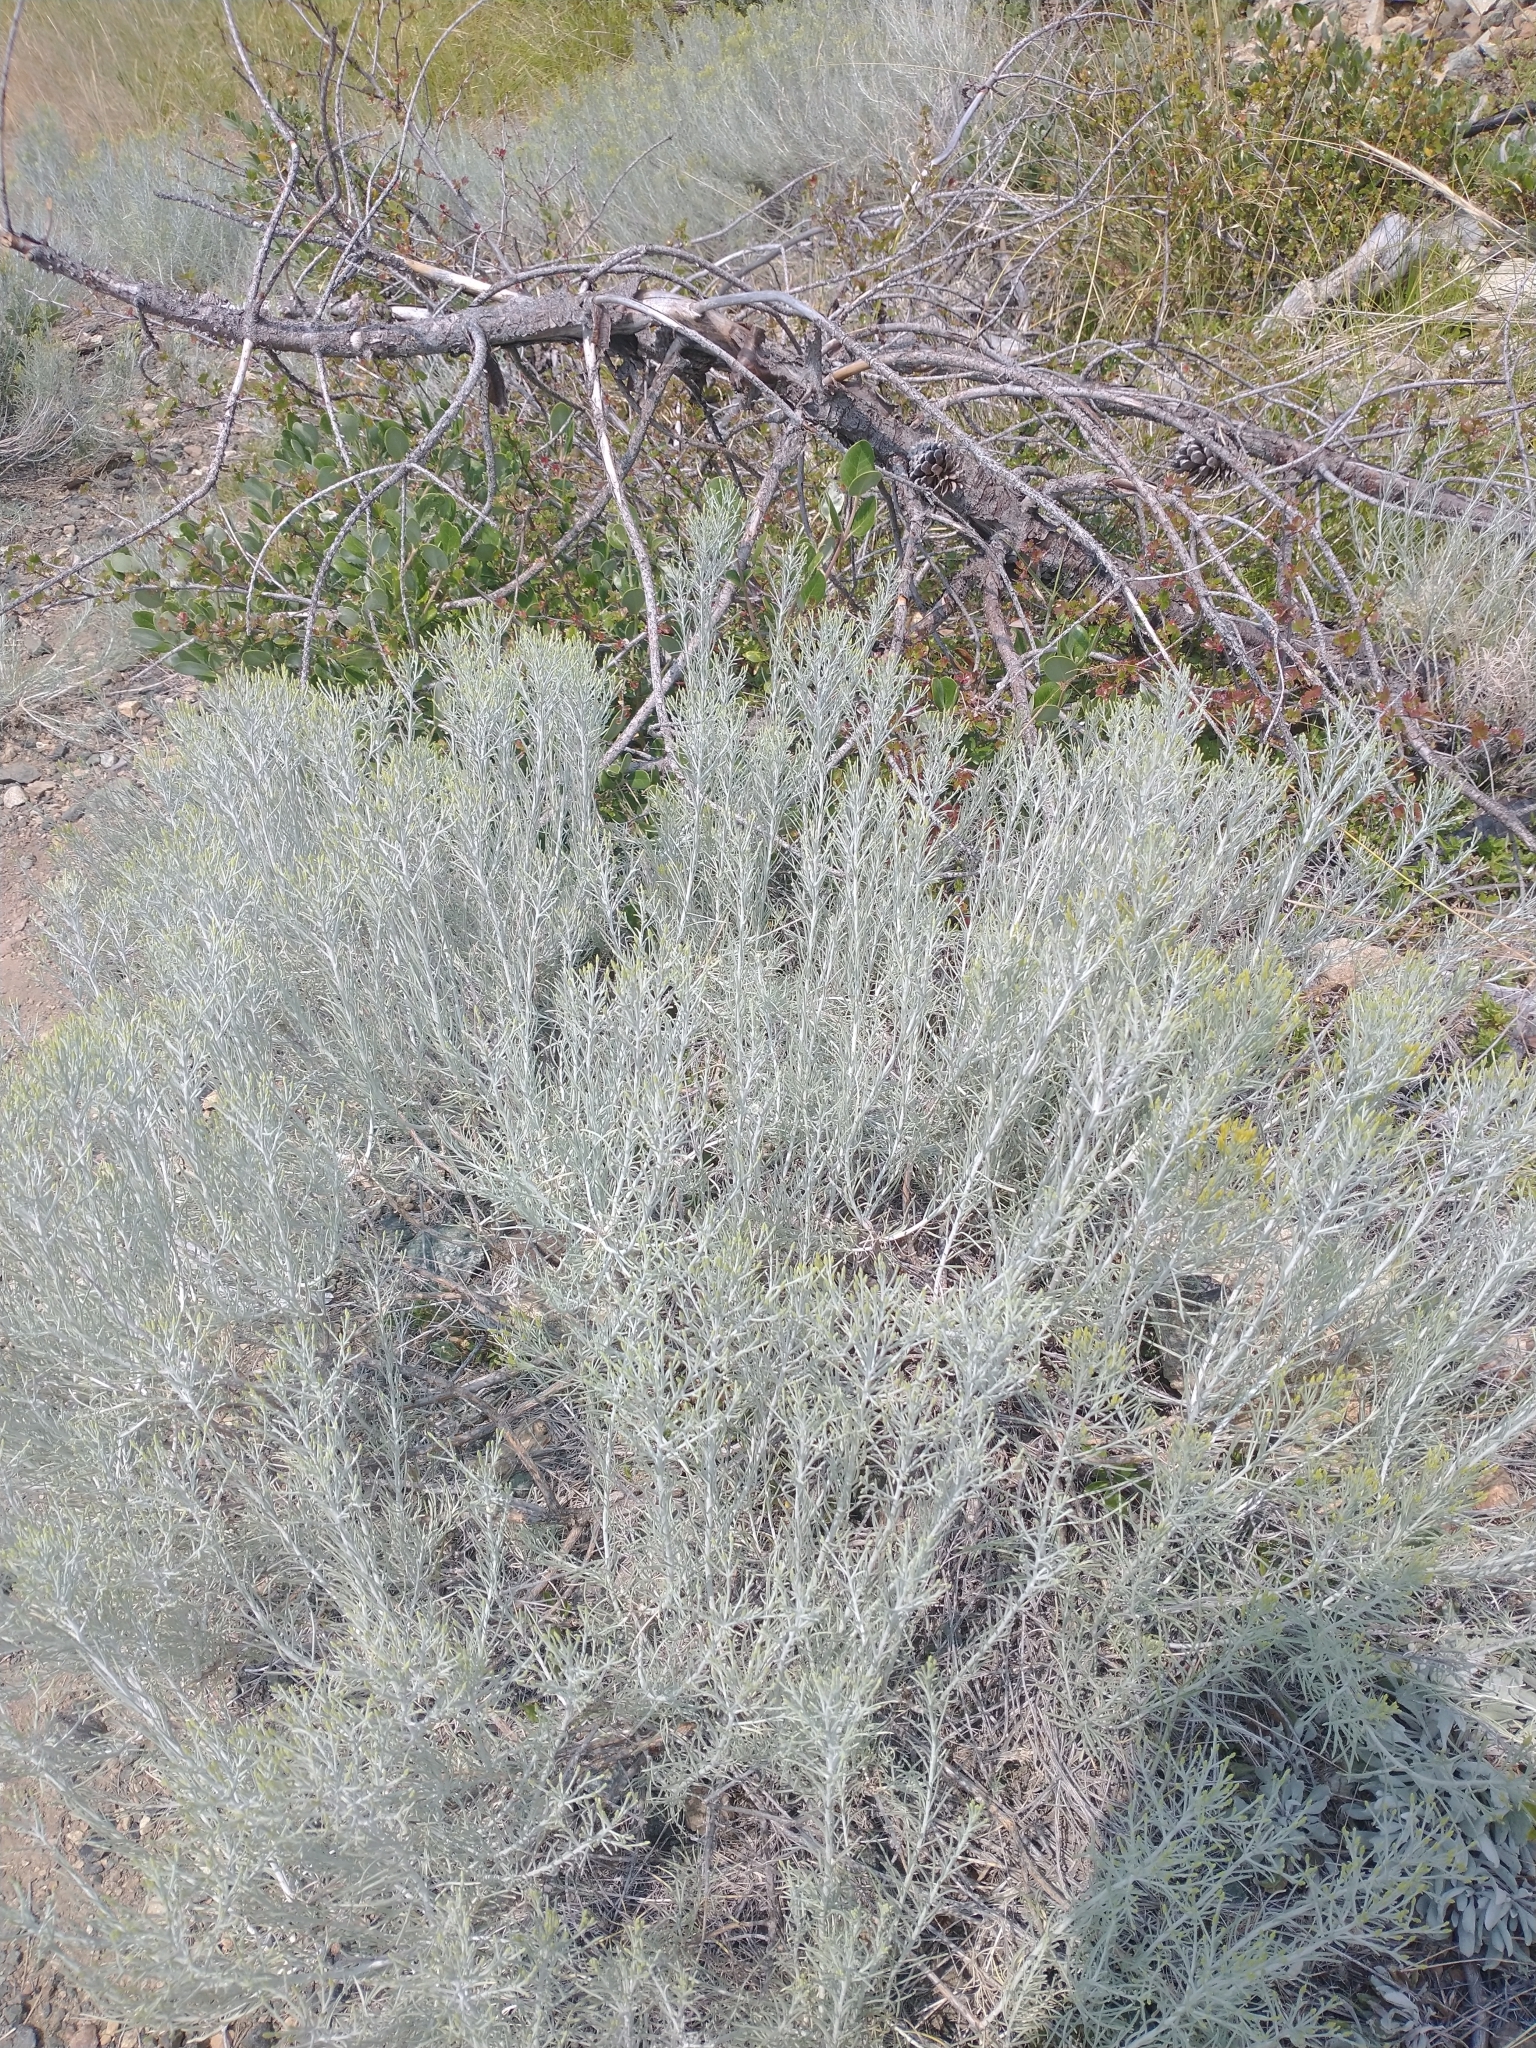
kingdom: Plantae
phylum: Tracheophyta
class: Magnoliopsida
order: Asterales
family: Asteraceae
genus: Ericameria
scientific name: Ericameria nauseosa
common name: Rubber rabbitbrush
